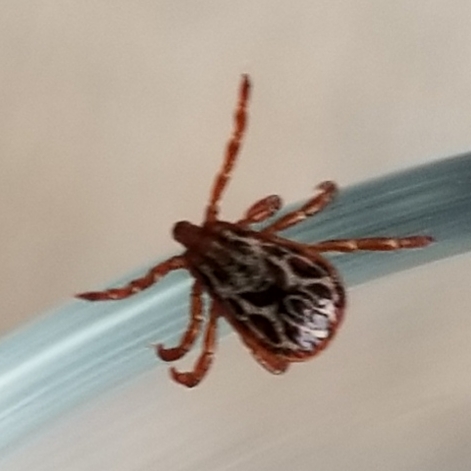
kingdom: Animalia
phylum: Arthropoda
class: Arachnida
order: Ixodida
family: Ixodidae
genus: Dermacentor
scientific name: Dermacentor hunteri
